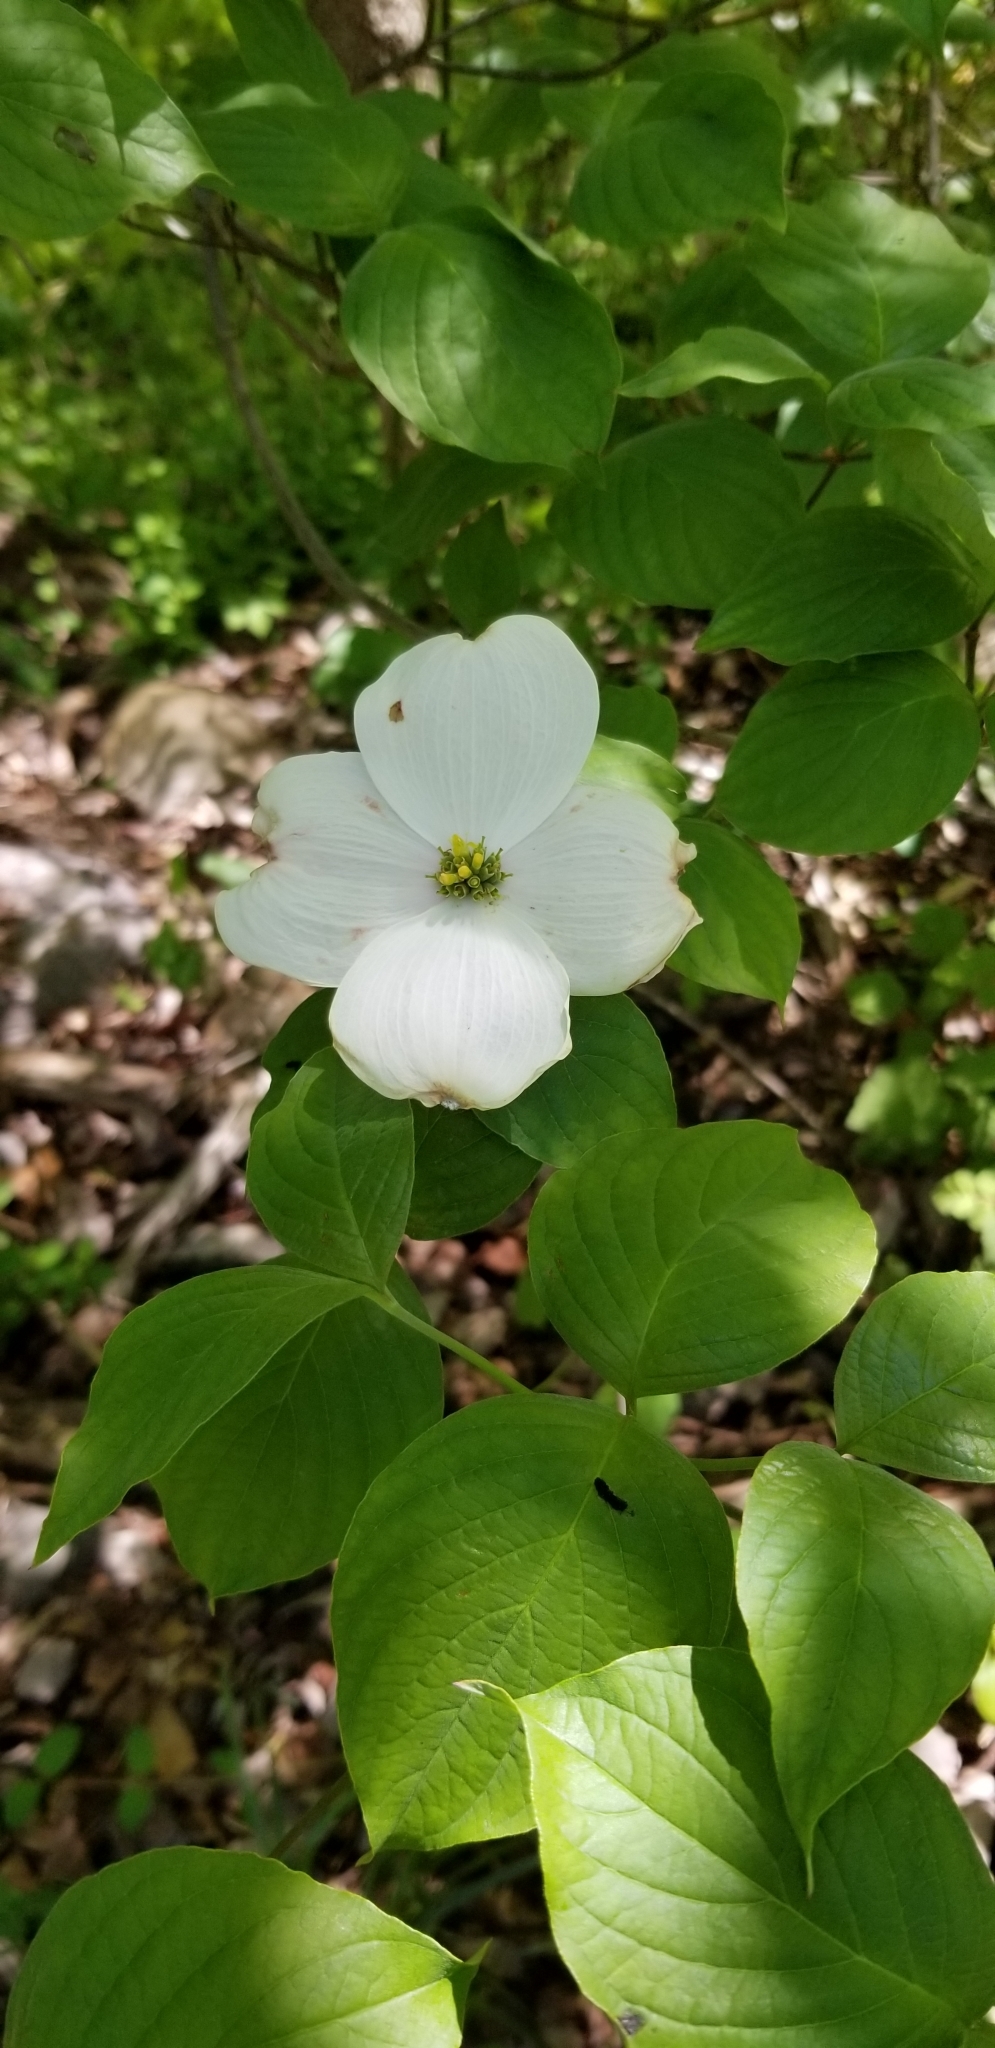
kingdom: Plantae
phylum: Tracheophyta
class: Magnoliopsida
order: Cornales
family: Cornaceae
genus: Cornus
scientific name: Cornus florida
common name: Flowering dogwood
